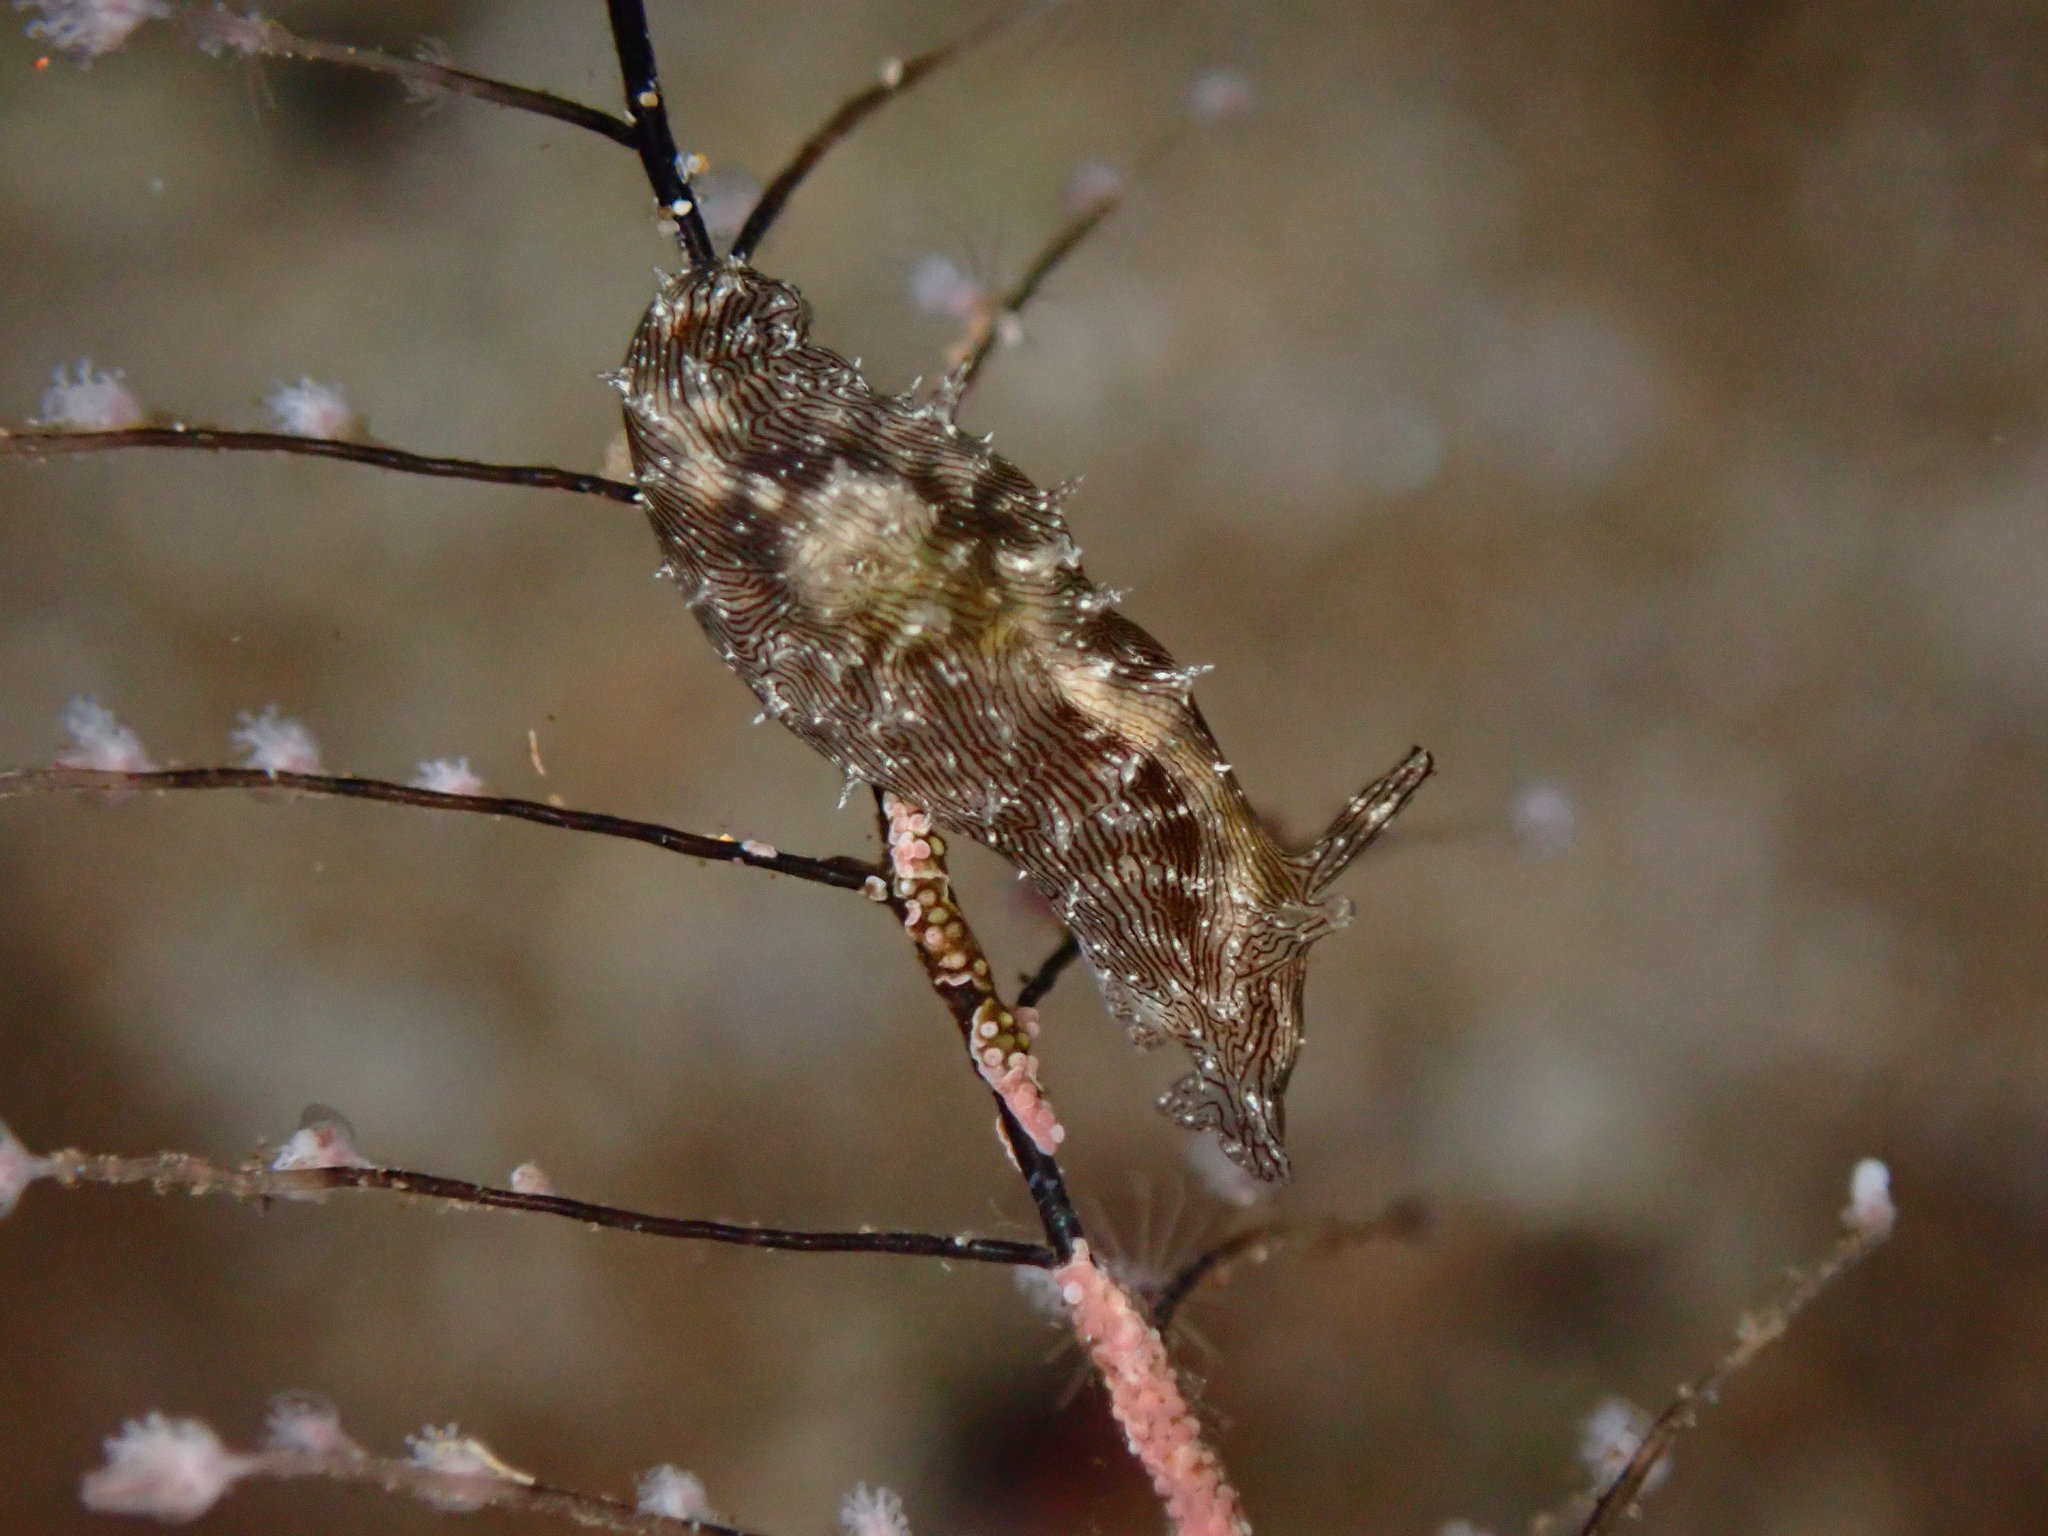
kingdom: Animalia
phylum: Mollusca
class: Gastropoda
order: Aplysiida
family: Aplysiidae
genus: Stylocheilus
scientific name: Stylocheilus striatus
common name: Striated seahare
